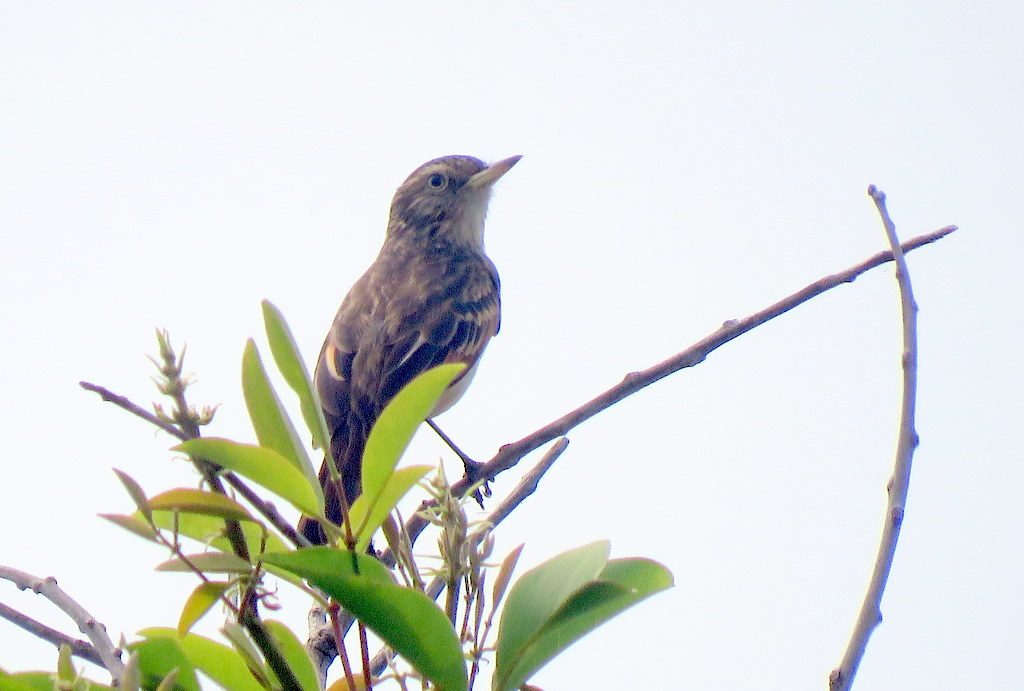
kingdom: Animalia
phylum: Chordata
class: Aves
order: Passeriformes
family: Tyrannidae
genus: Hymenops
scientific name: Hymenops perspicillatus
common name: Spectacled tyrant
